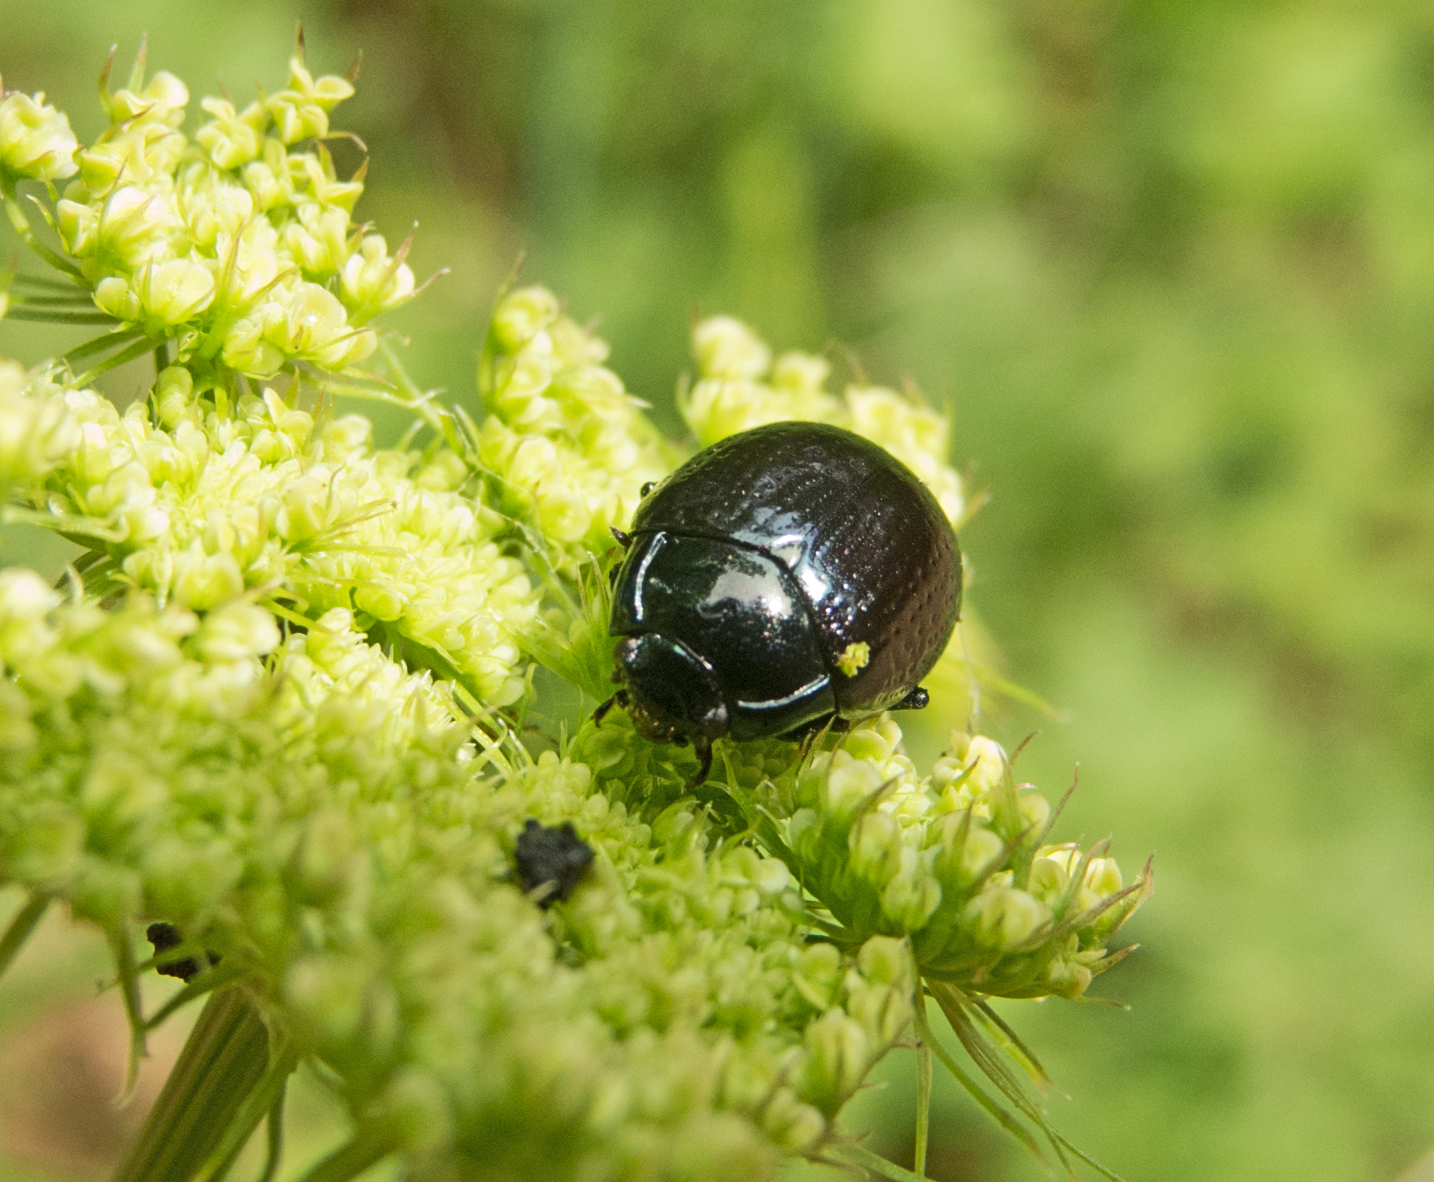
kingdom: Animalia
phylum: Arthropoda
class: Insecta
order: Coleoptera
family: Chrysomelidae
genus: Chrysolina
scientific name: Chrysolina oricalcia
